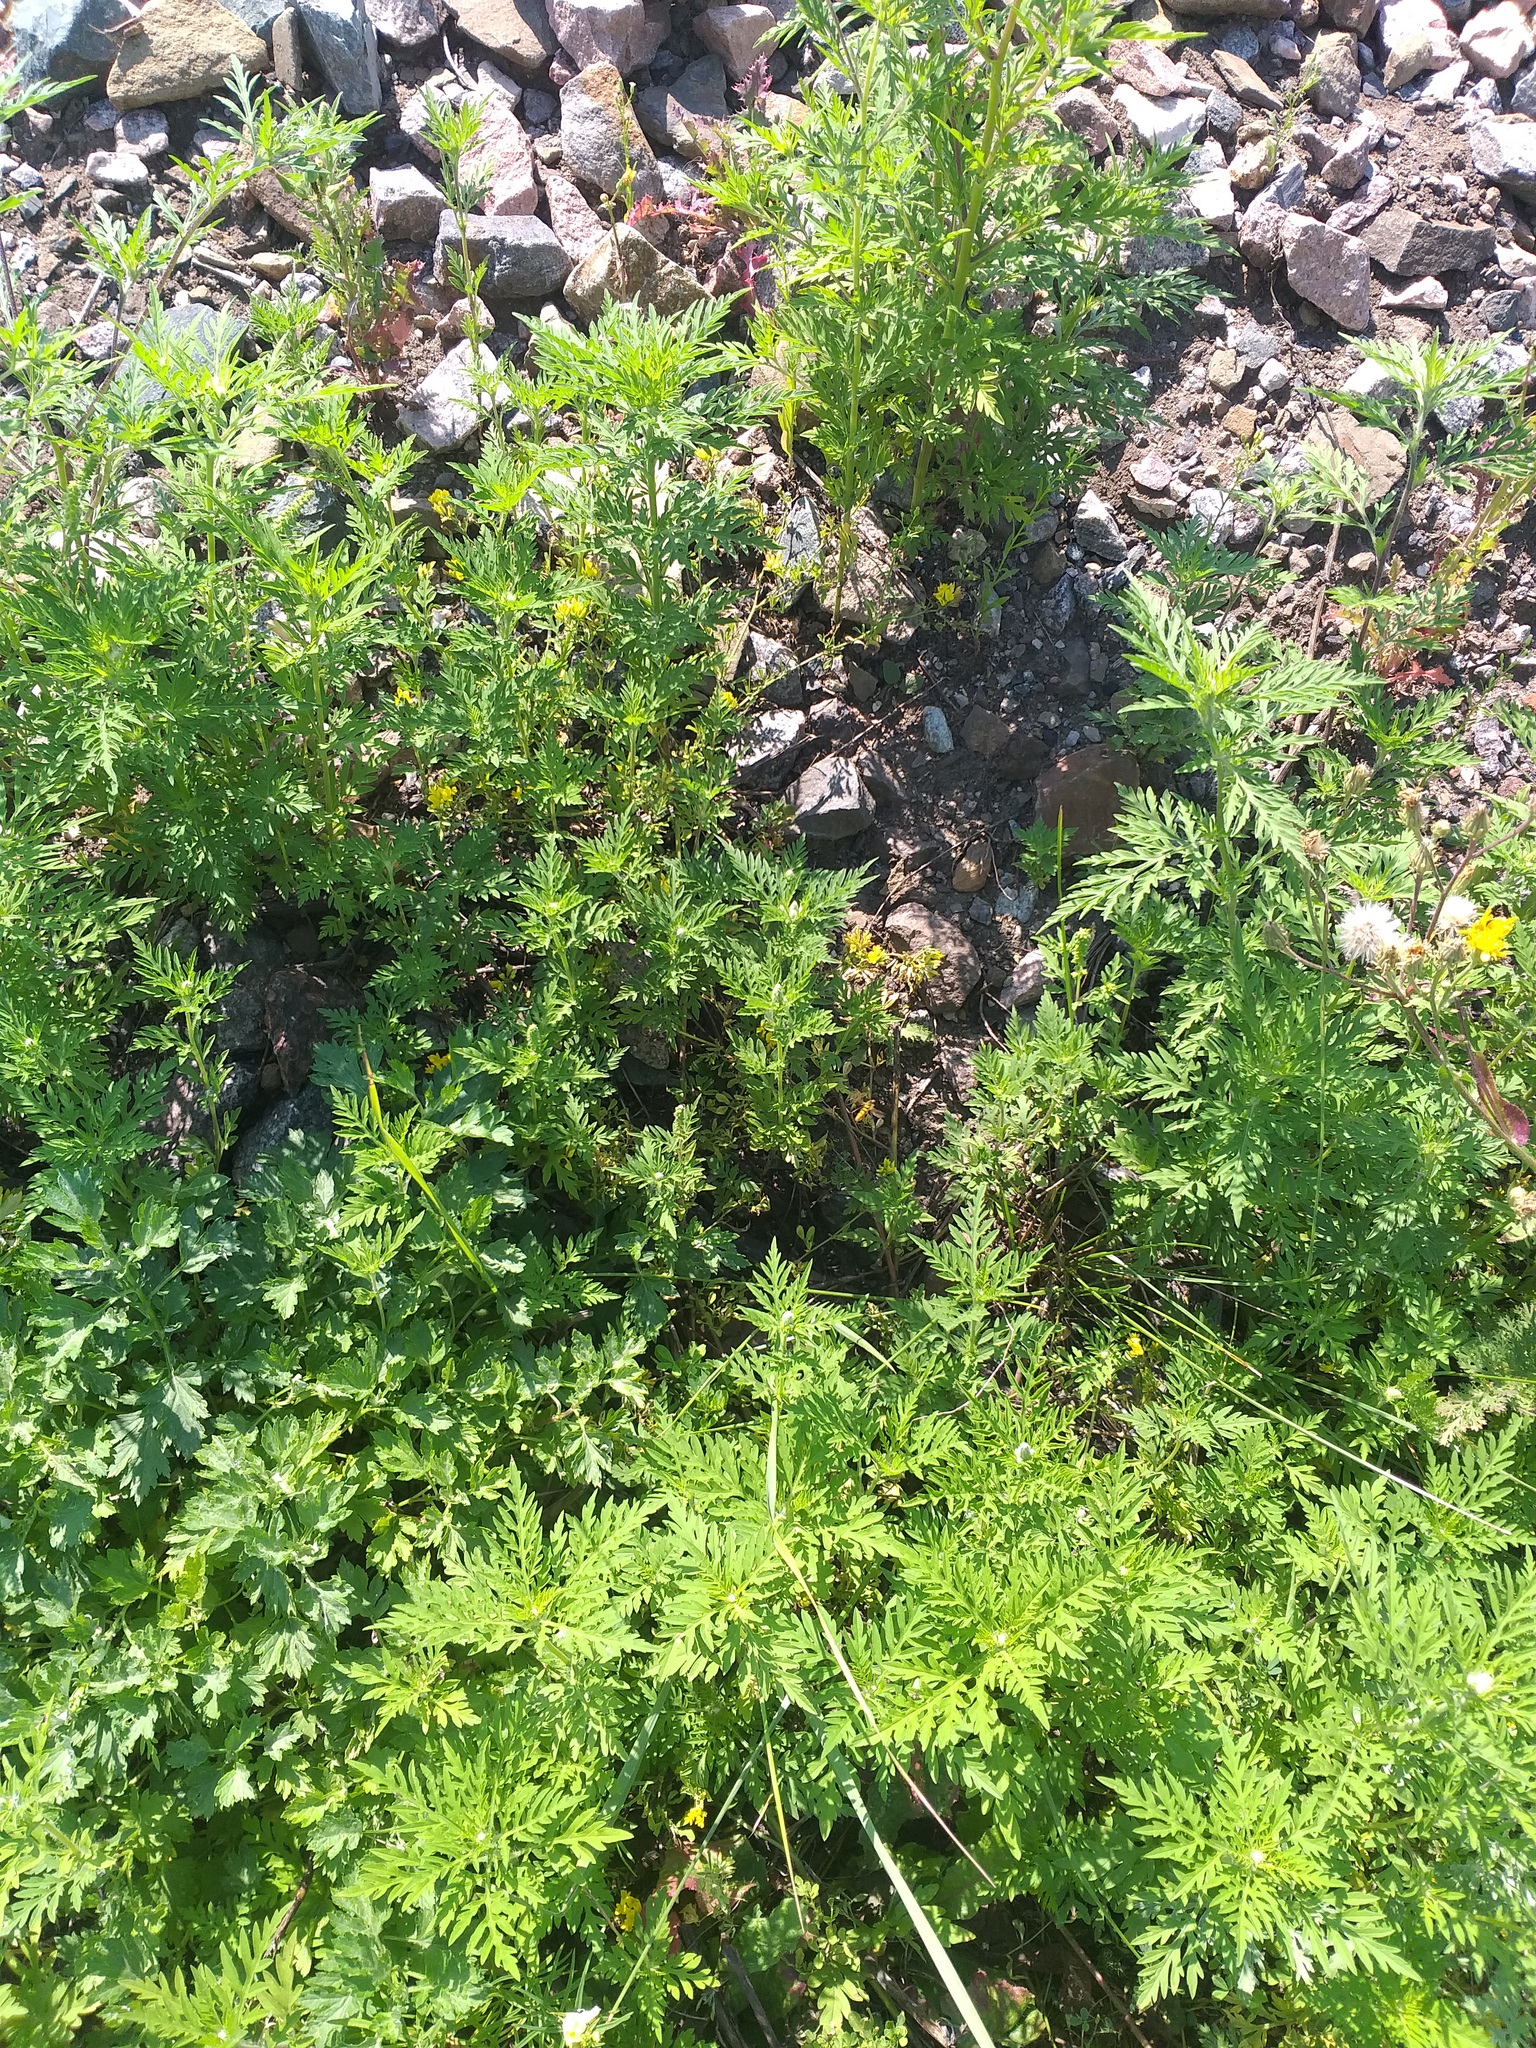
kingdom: Plantae
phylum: Tracheophyta
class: Magnoliopsida
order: Asterales
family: Asteraceae
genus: Ambrosia
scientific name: Ambrosia artemisiifolia
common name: Annual ragweed
